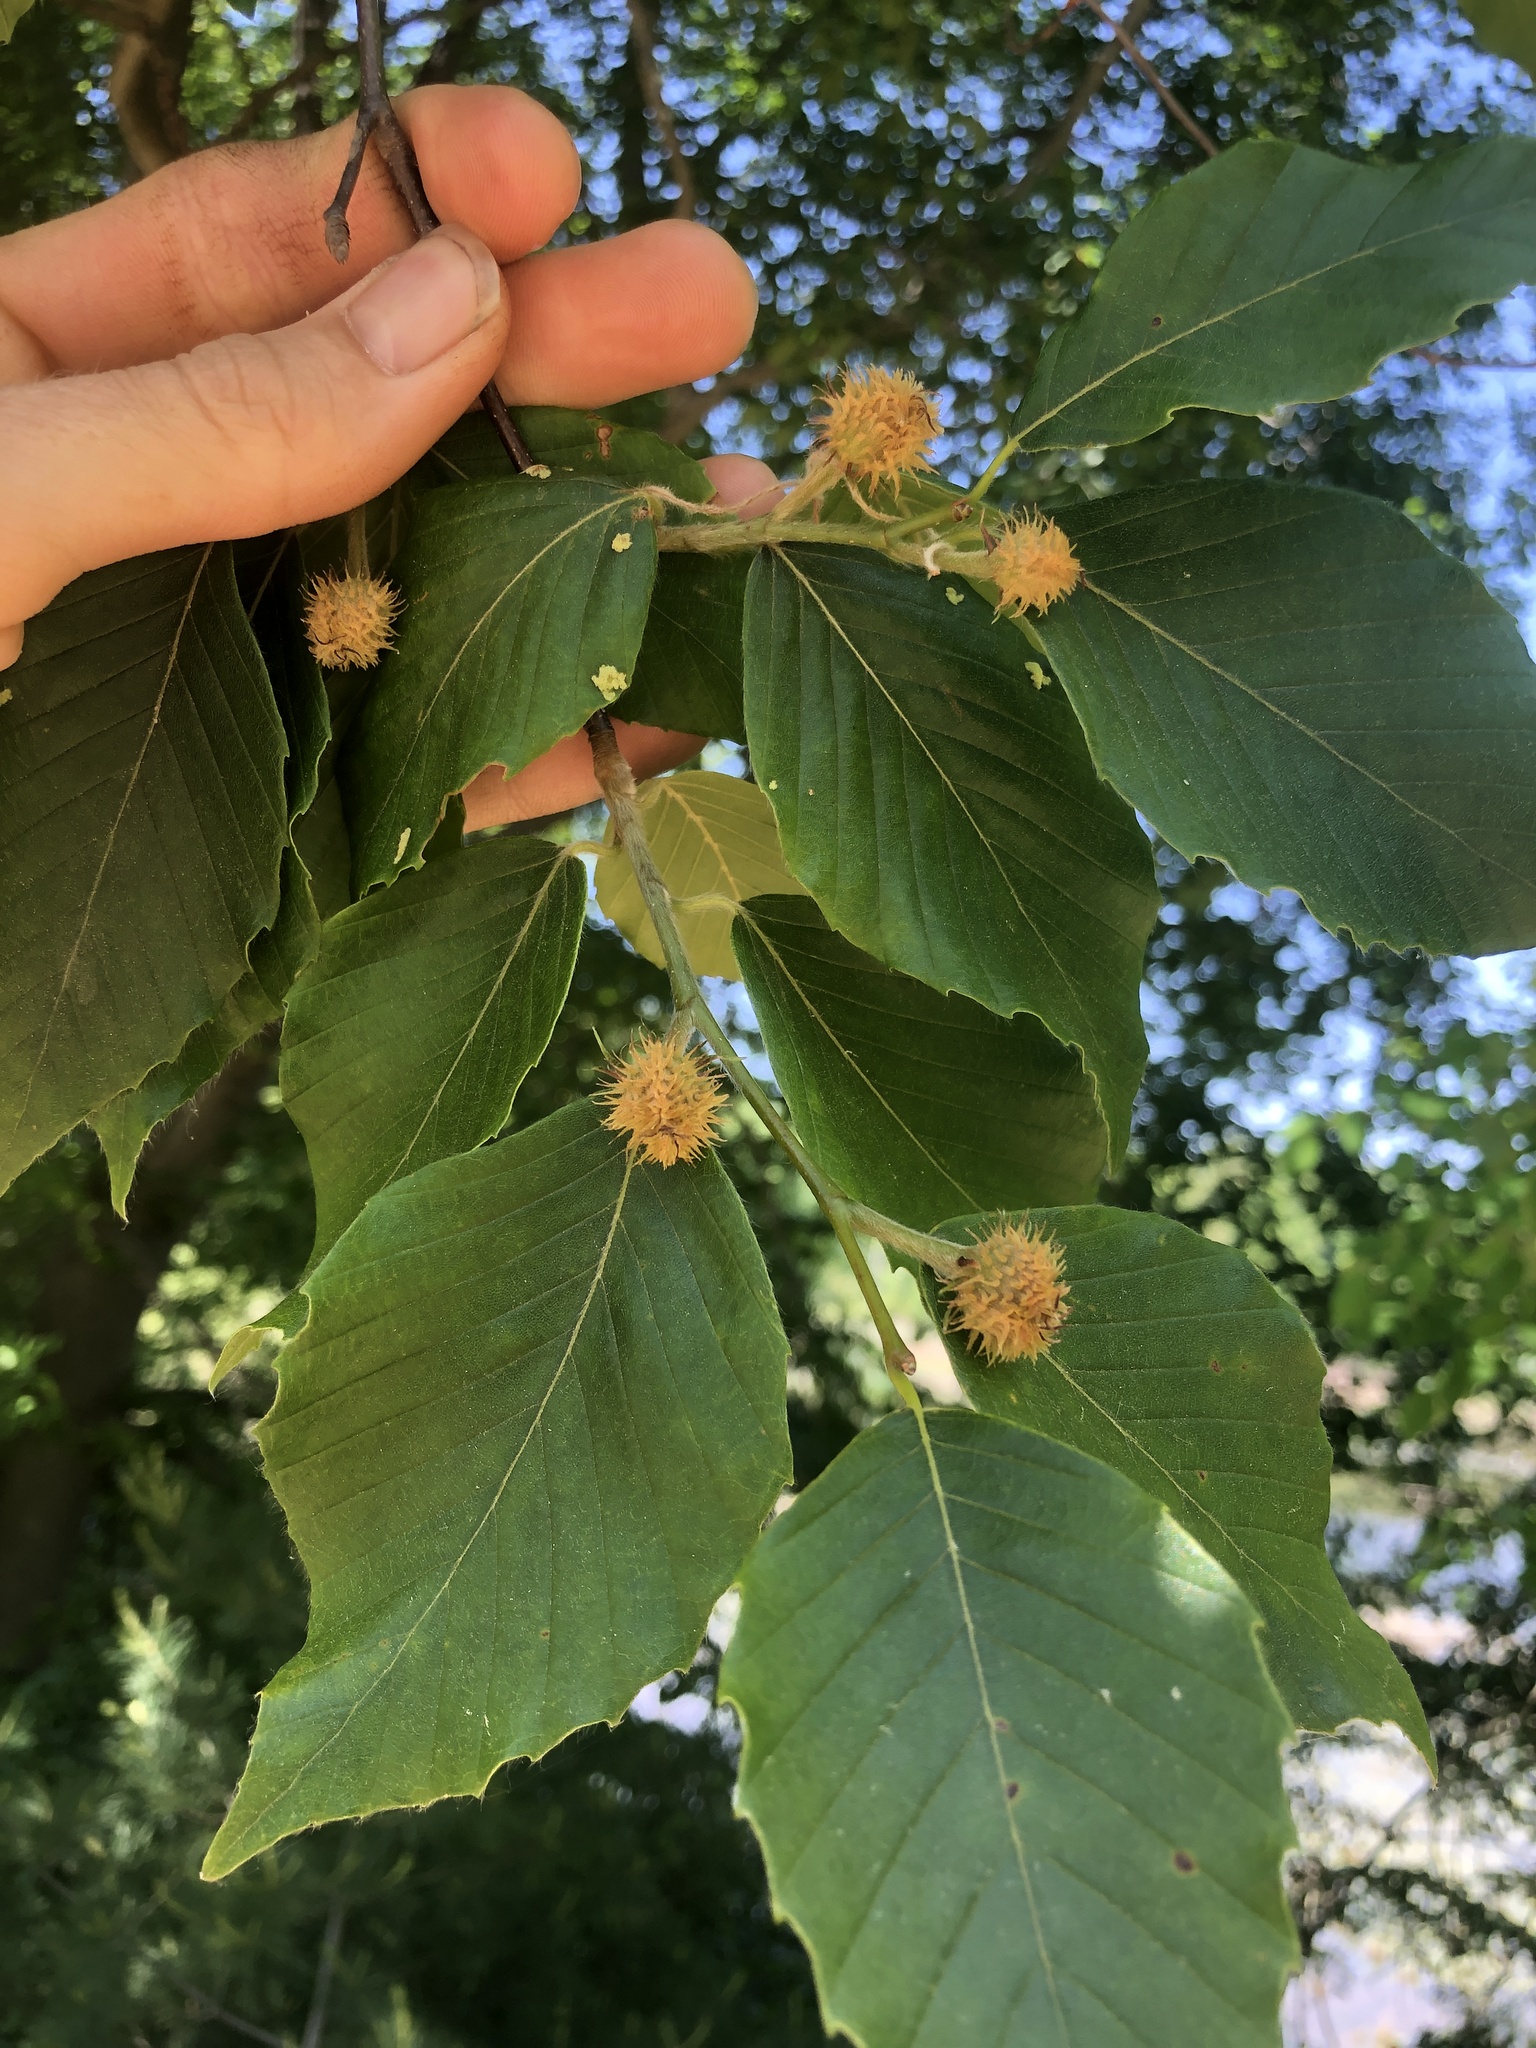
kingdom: Plantae
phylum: Tracheophyta
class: Magnoliopsida
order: Fagales
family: Fagaceae
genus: Fagus
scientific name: Fagus grandifolia
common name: American beech
